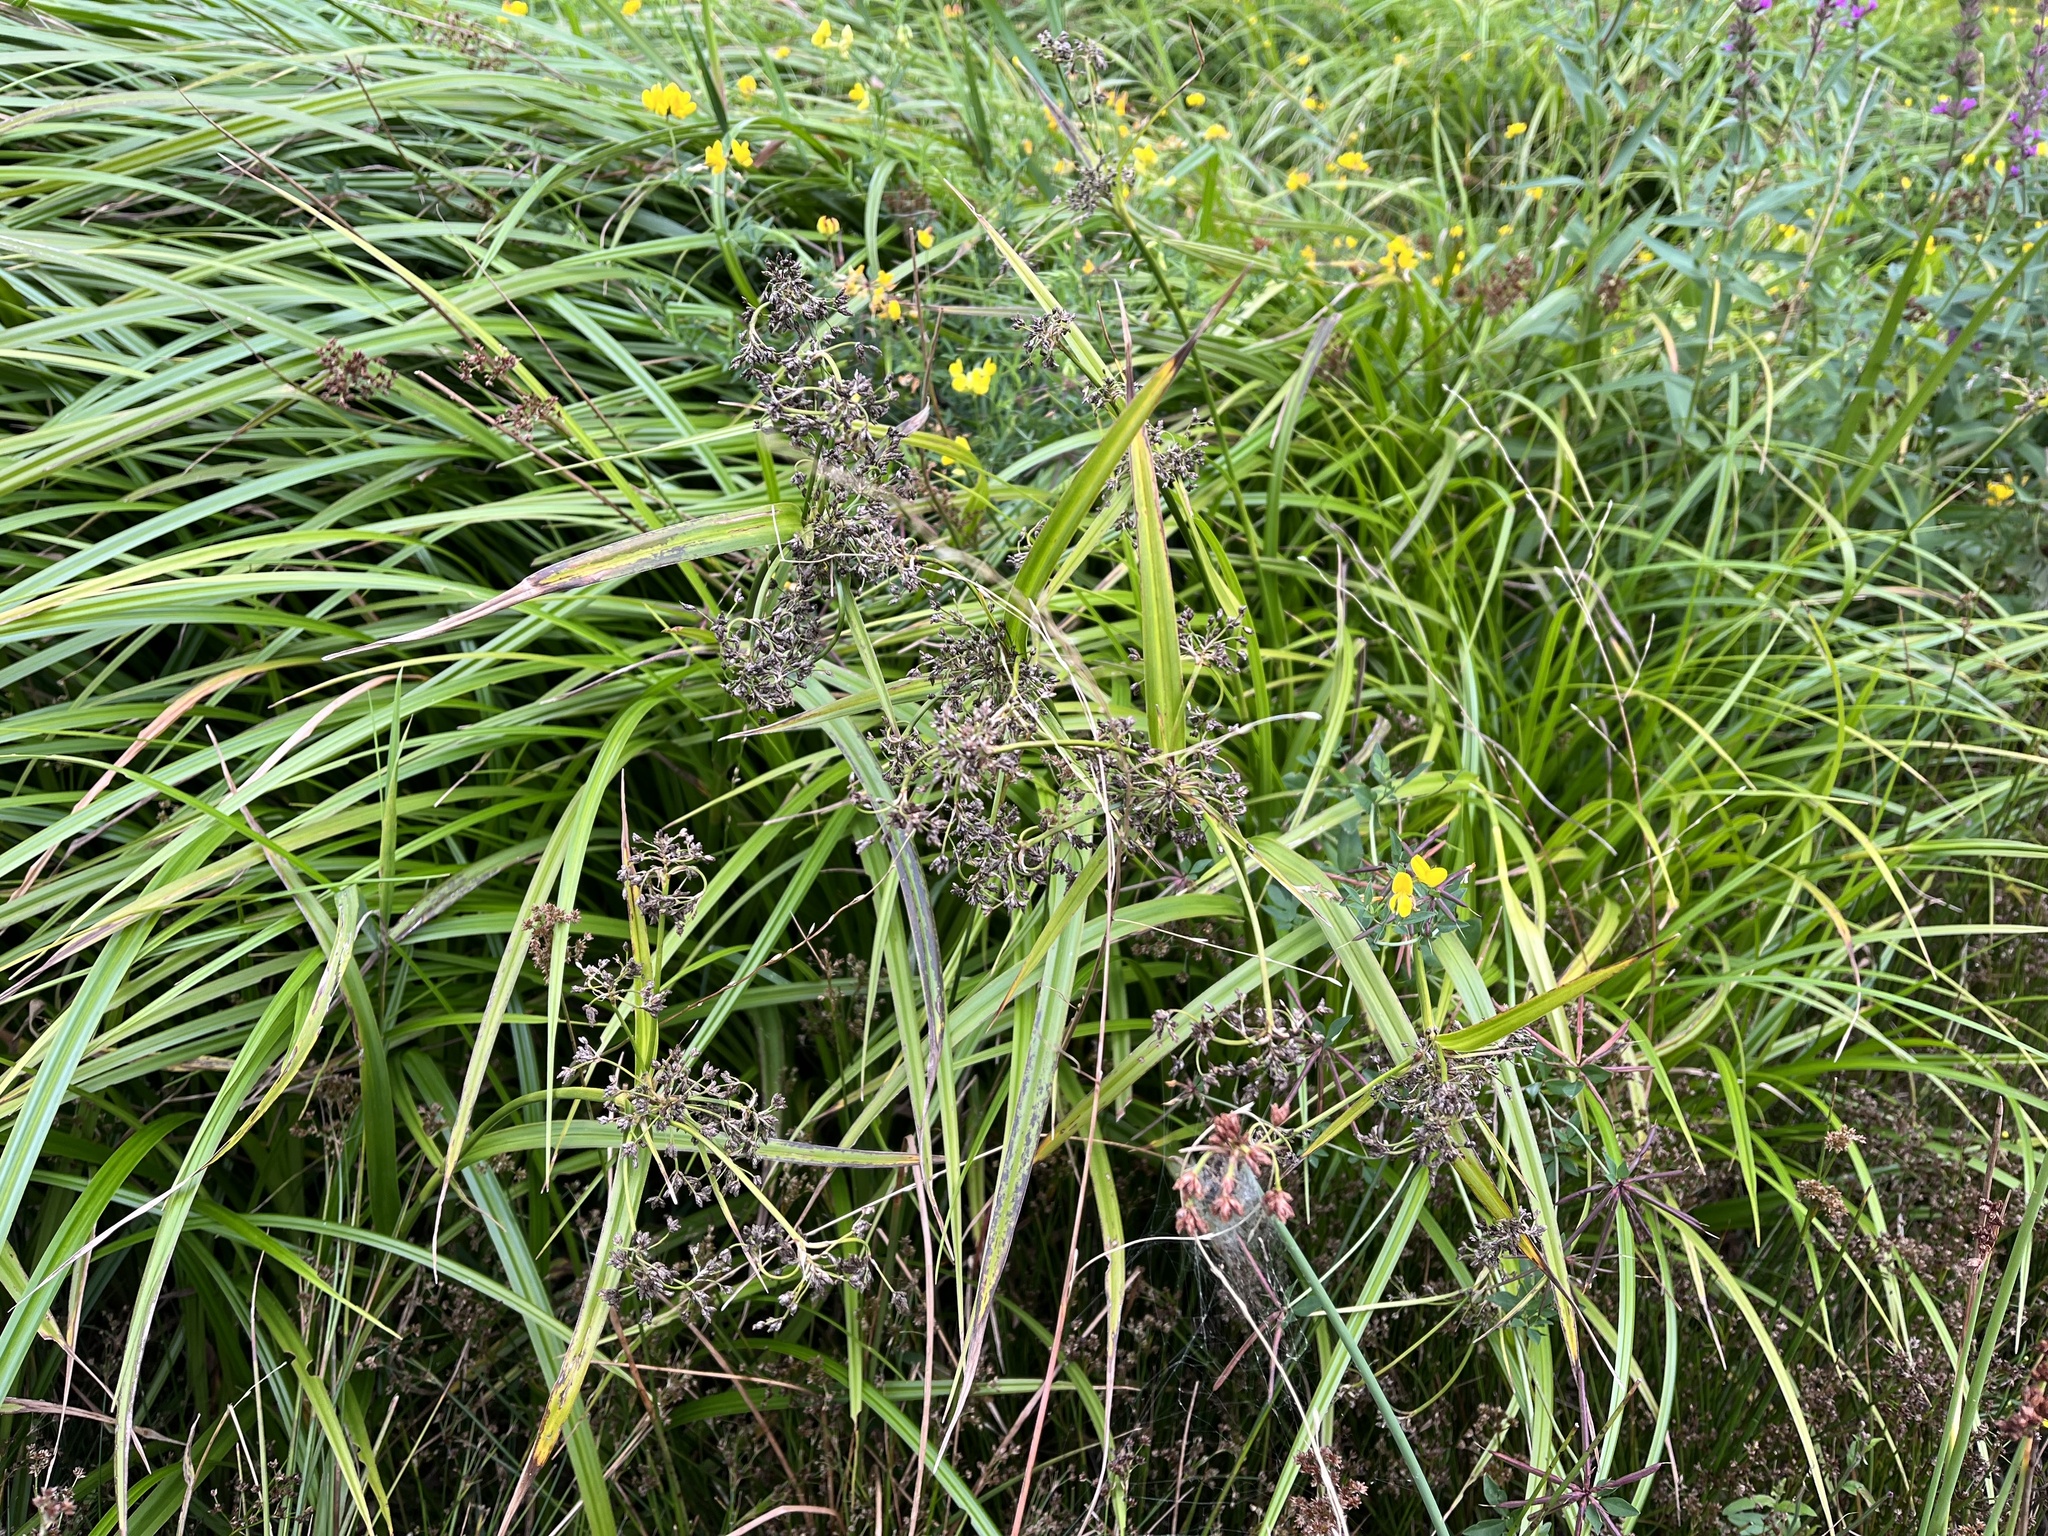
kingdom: Plantae
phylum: Tracheophyta
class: Liliopsida
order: Poales
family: Cyperaceae
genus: Scirpus
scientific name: Scirpus sylvaticus
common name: Wood club-rush
